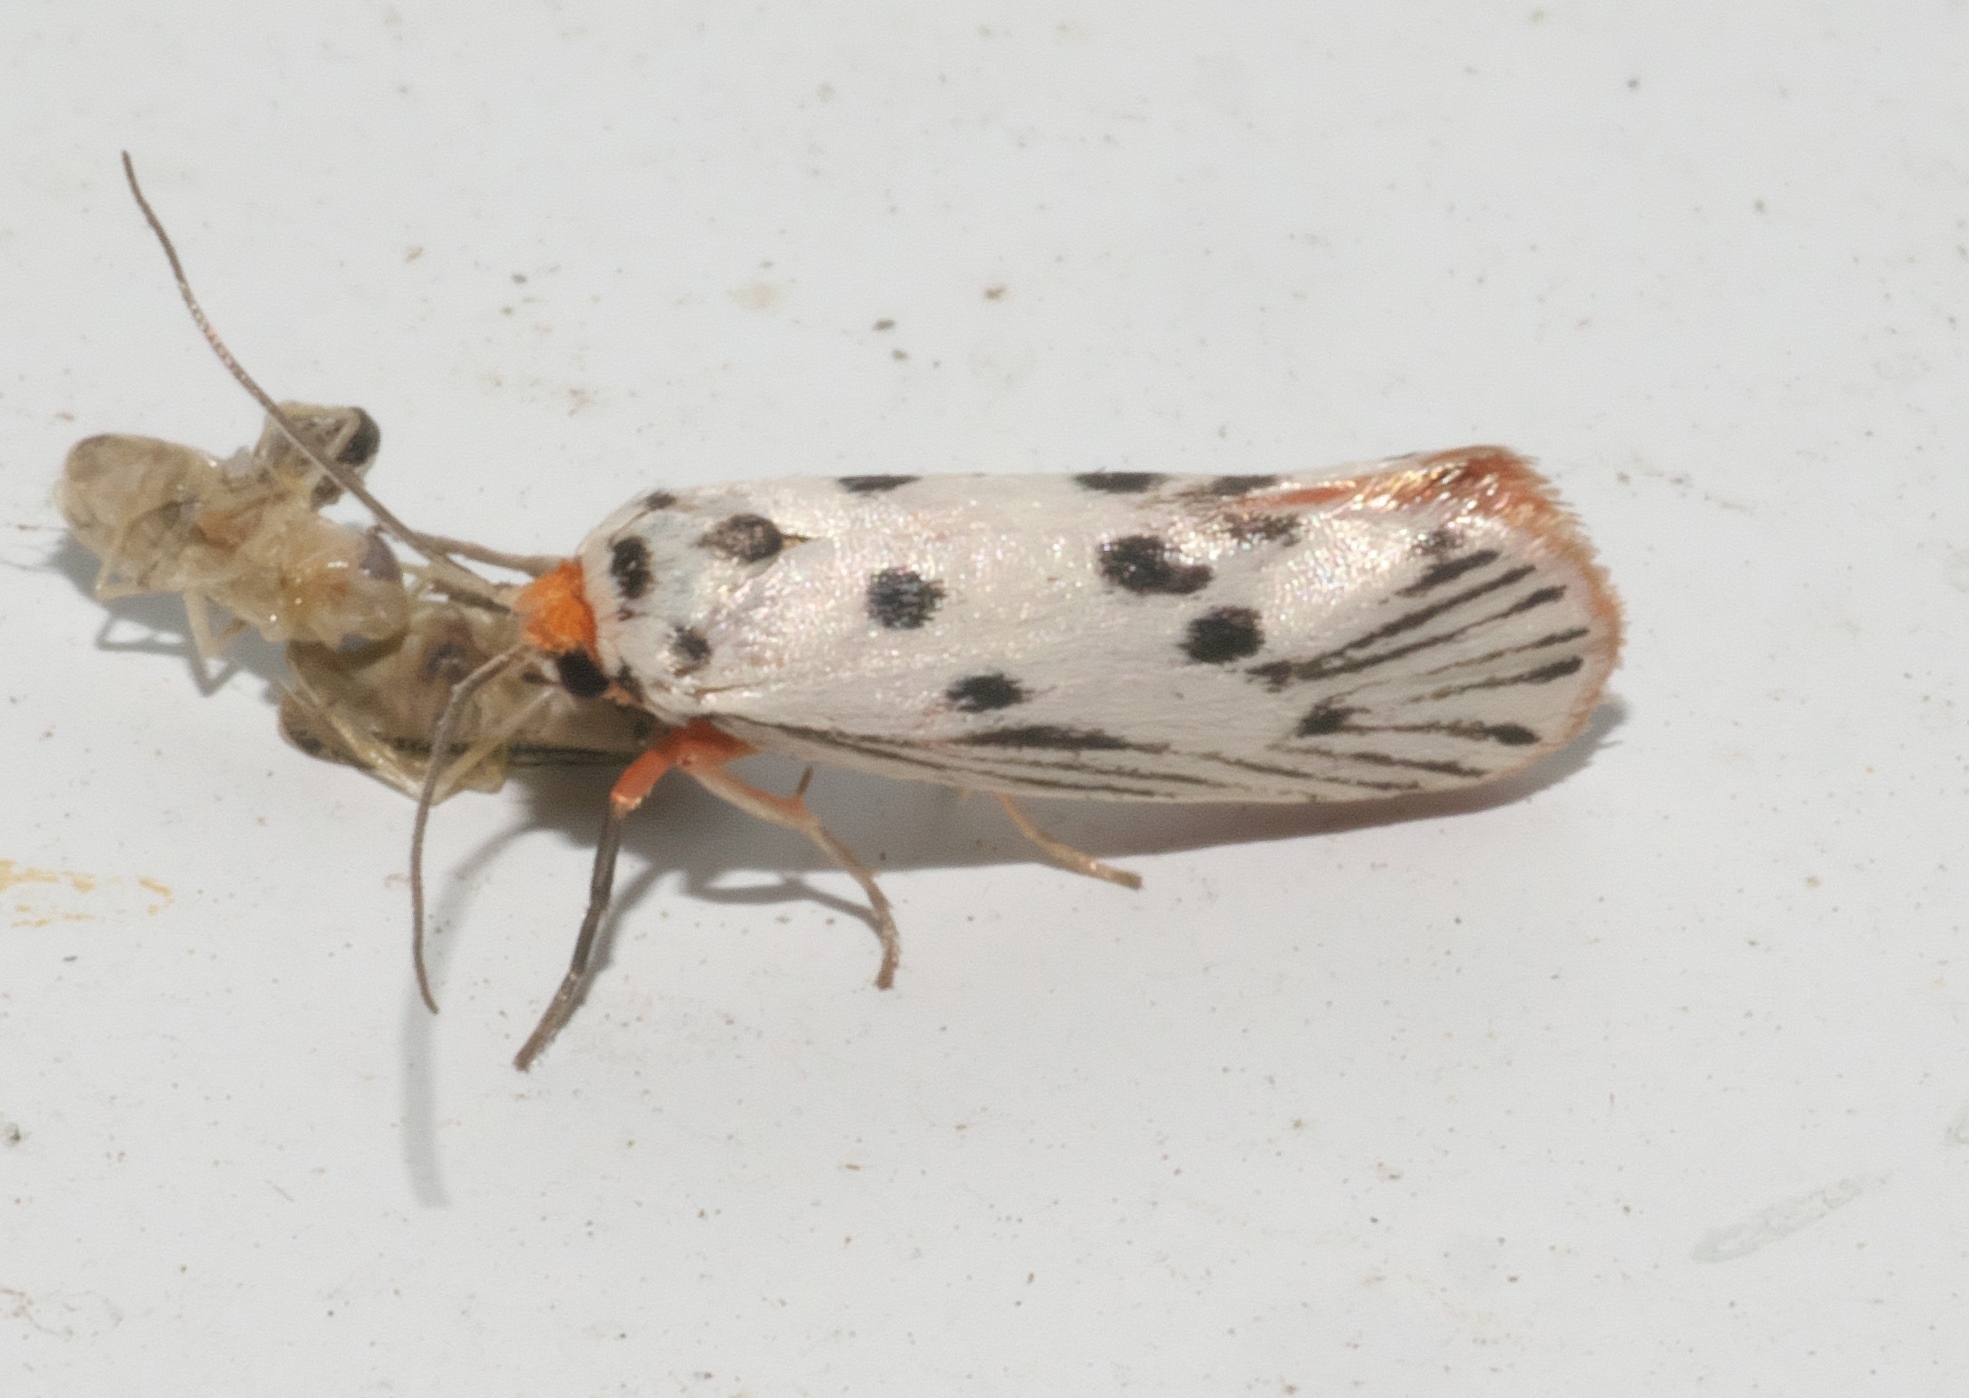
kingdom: Animalia
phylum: Arthropoda
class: Insecta
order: Lepidoptera
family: Lacturidae
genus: Lactura
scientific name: Lactura
